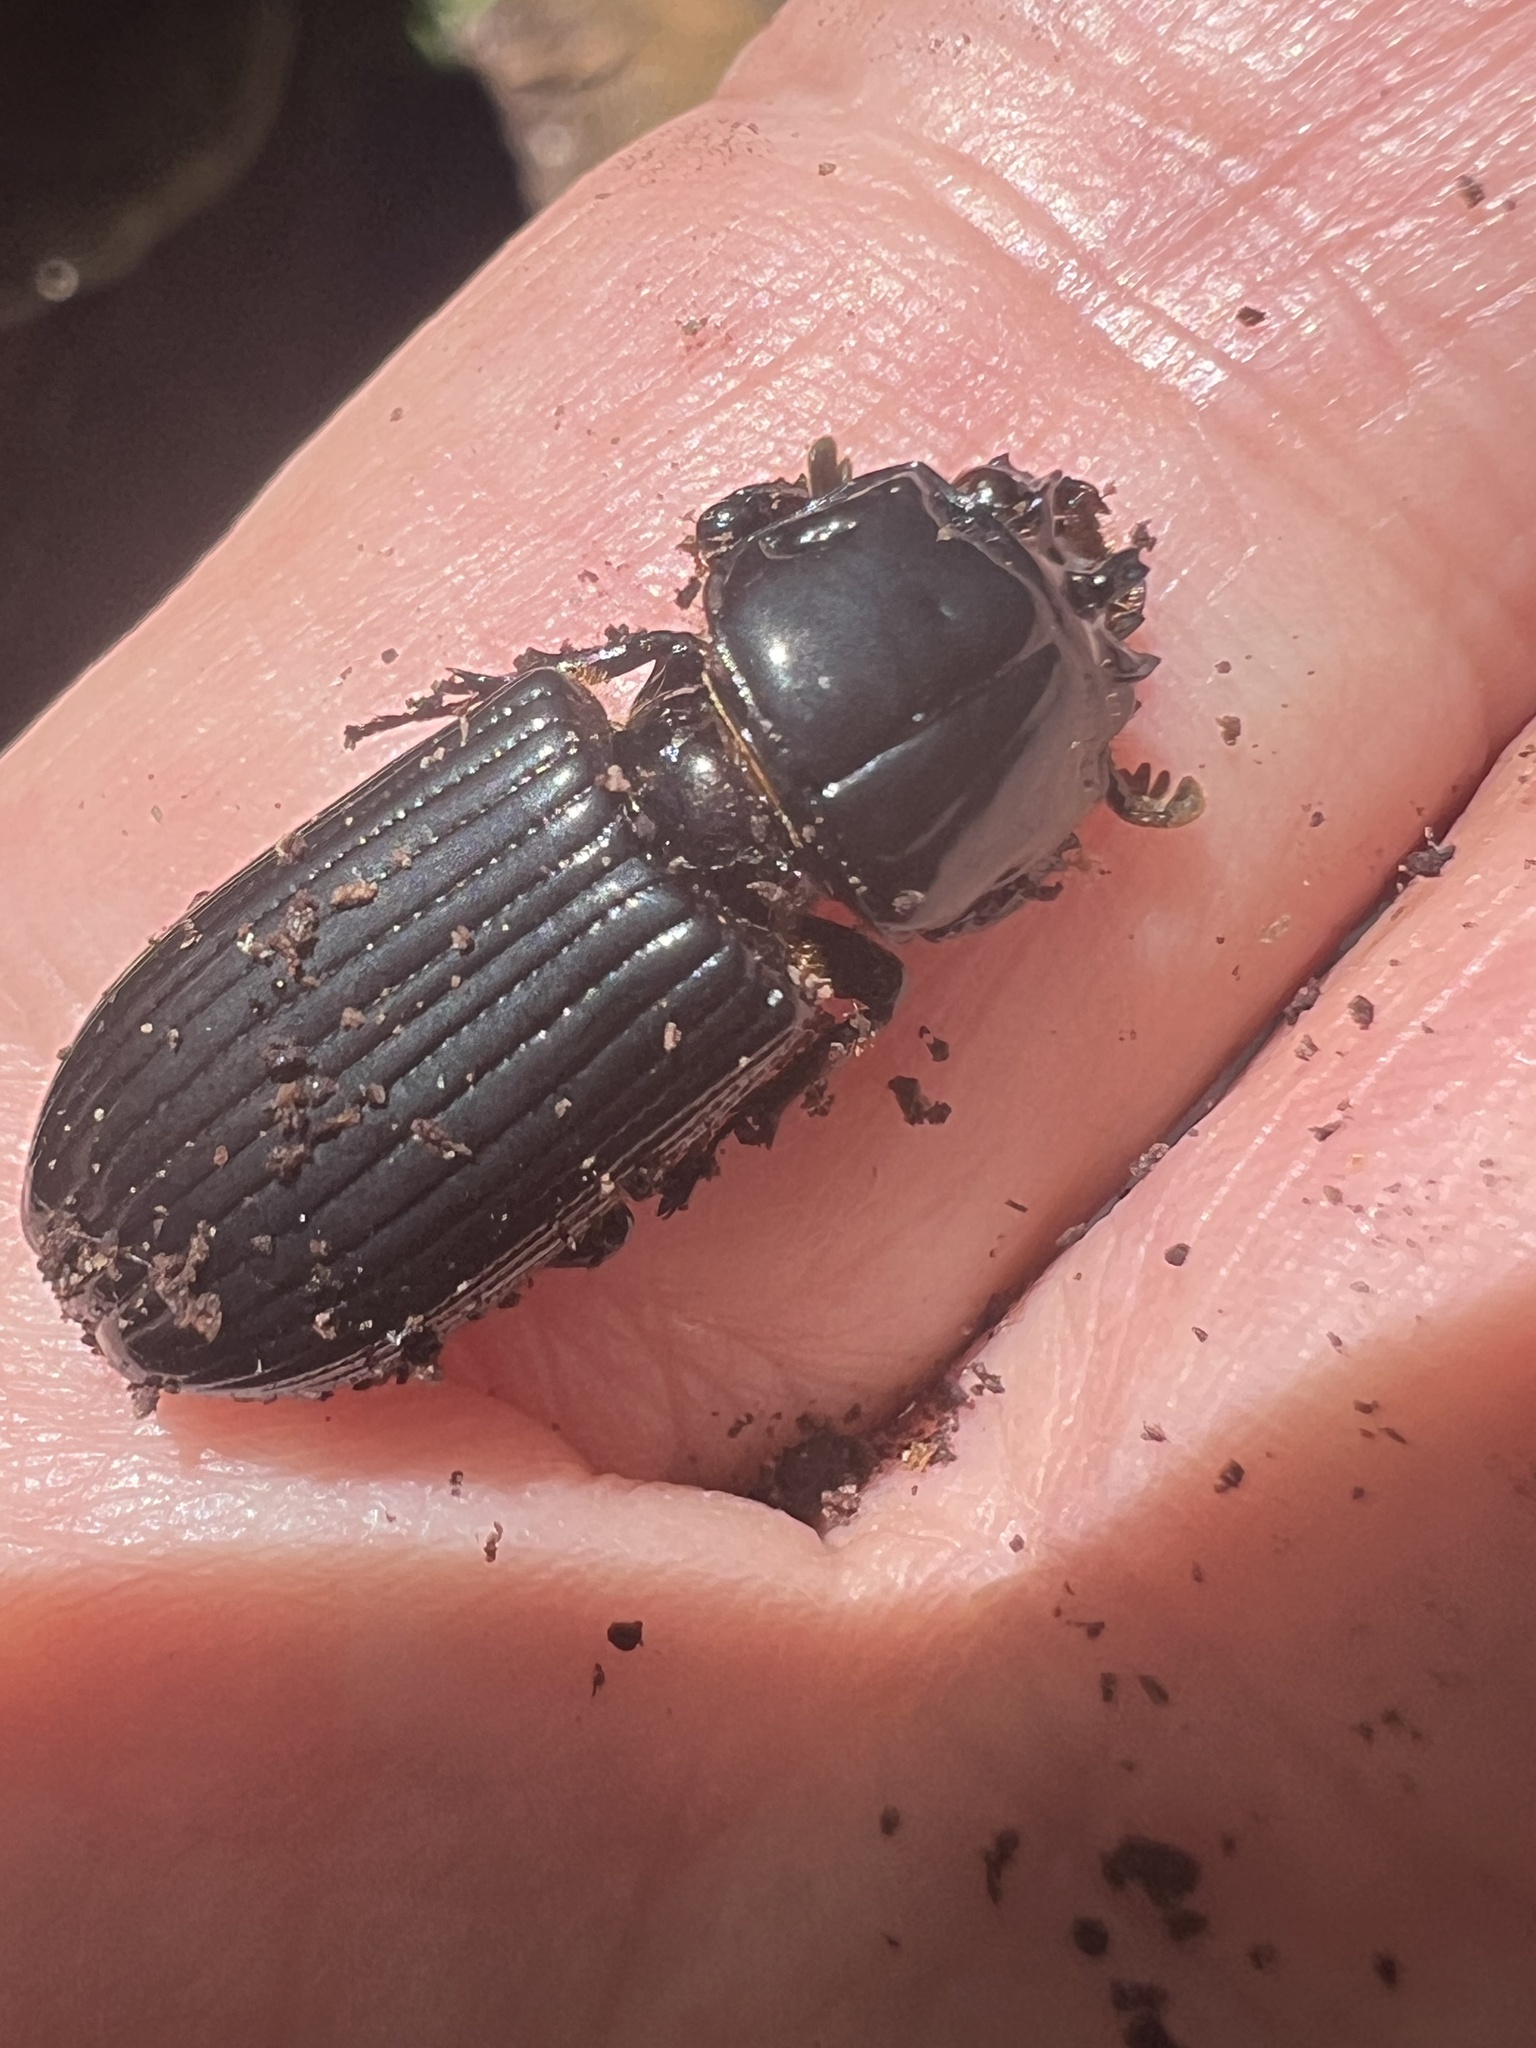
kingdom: Animalia
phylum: Arthropoda
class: Insecta
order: Coleoptera
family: Passalidae
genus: Aulacocyclus
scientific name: Aulacocyclus fracticornis
